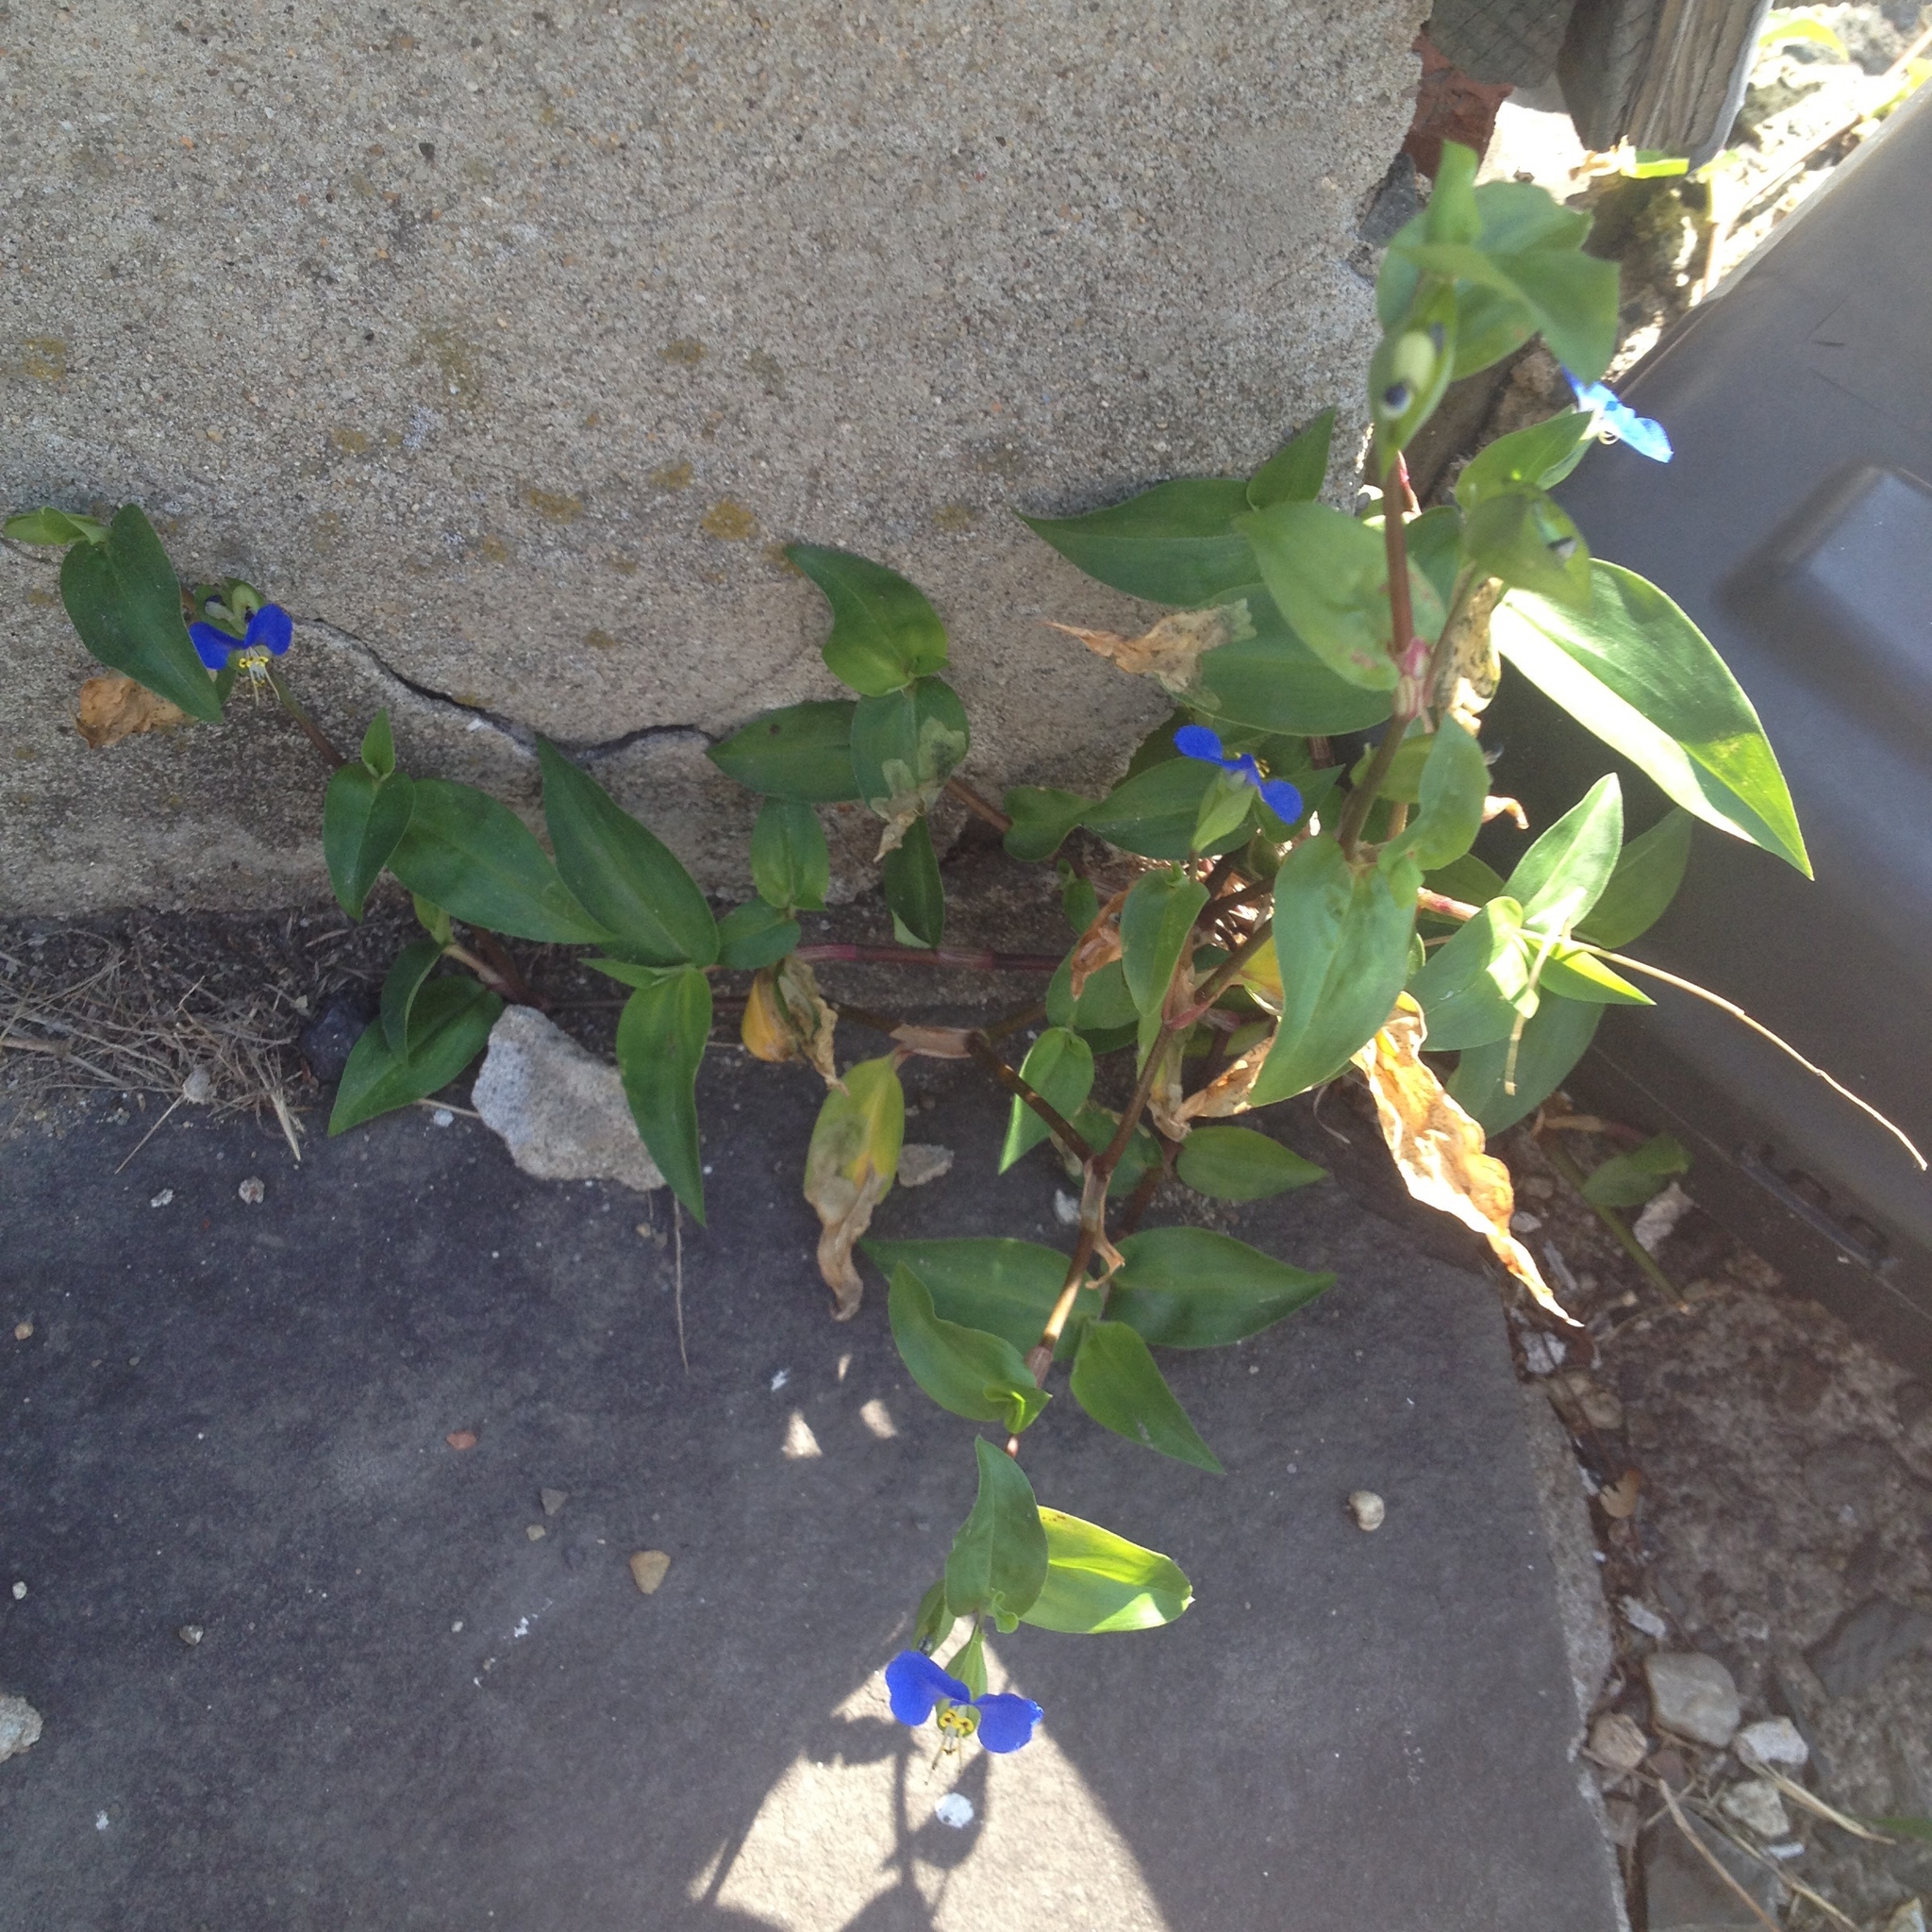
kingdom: Plantae
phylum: Tracheophyta
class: Liliopsida
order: Commelinales
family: Commelinaceae
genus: Commelina
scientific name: Commelina communis
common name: Asiatic dayflower
